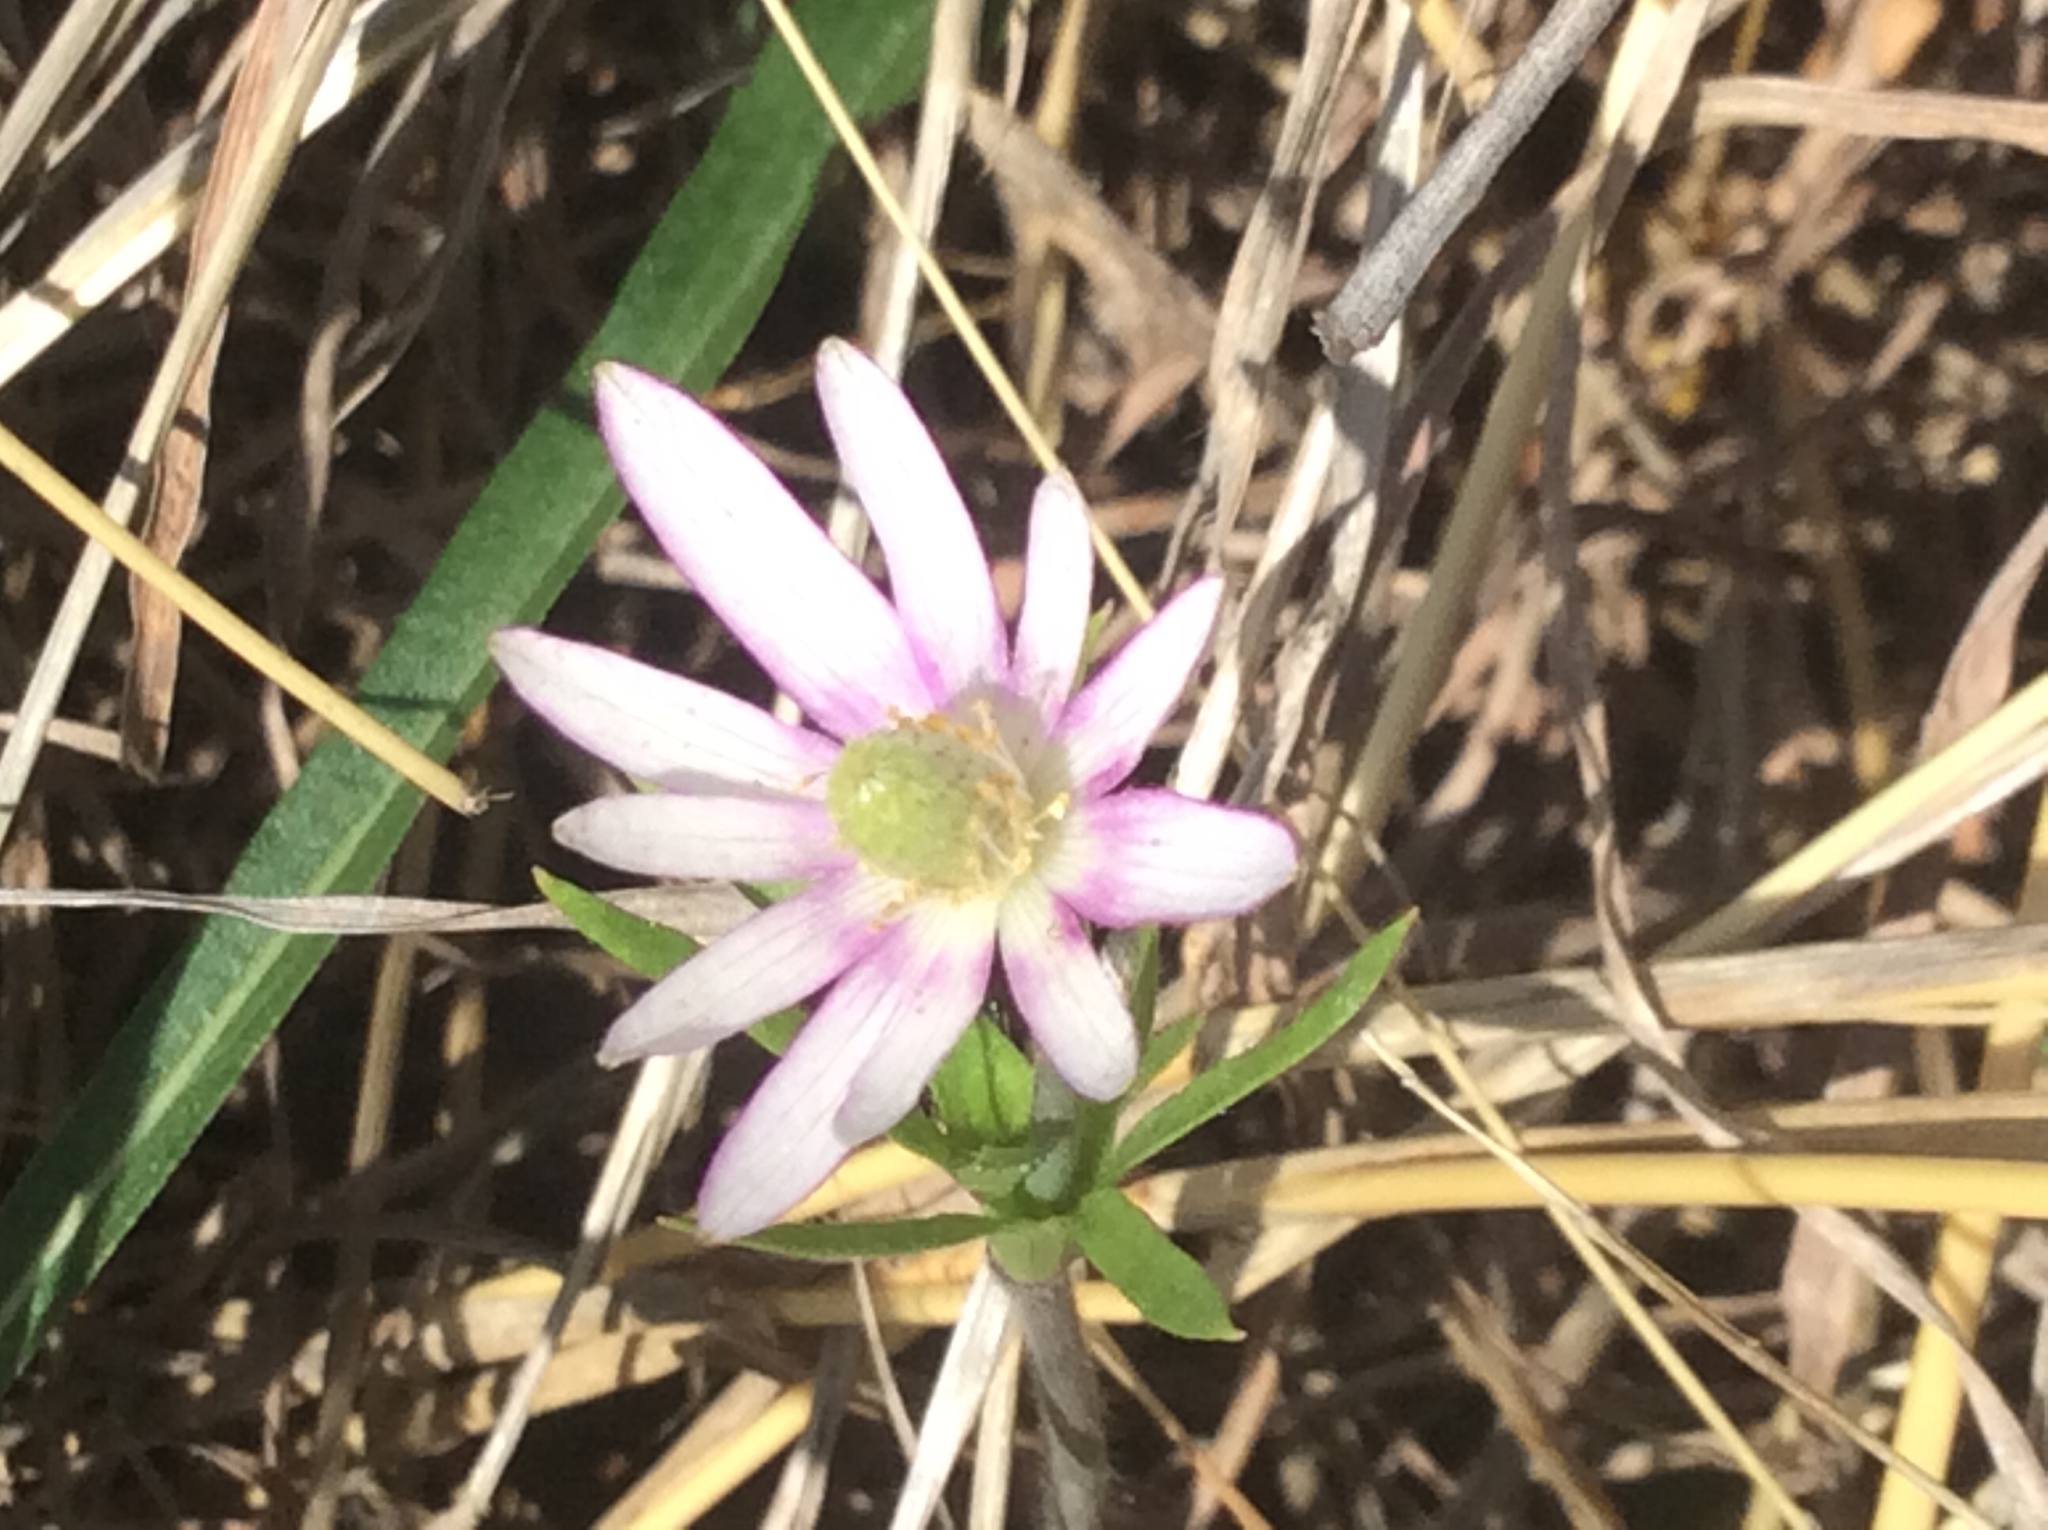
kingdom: Plantae
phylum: Tracheophyta
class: Magnoliopsida
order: Ranunculales
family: Ranunculaceae
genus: Anemone
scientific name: Anemone berlandieri
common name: Ten-petal anemone
